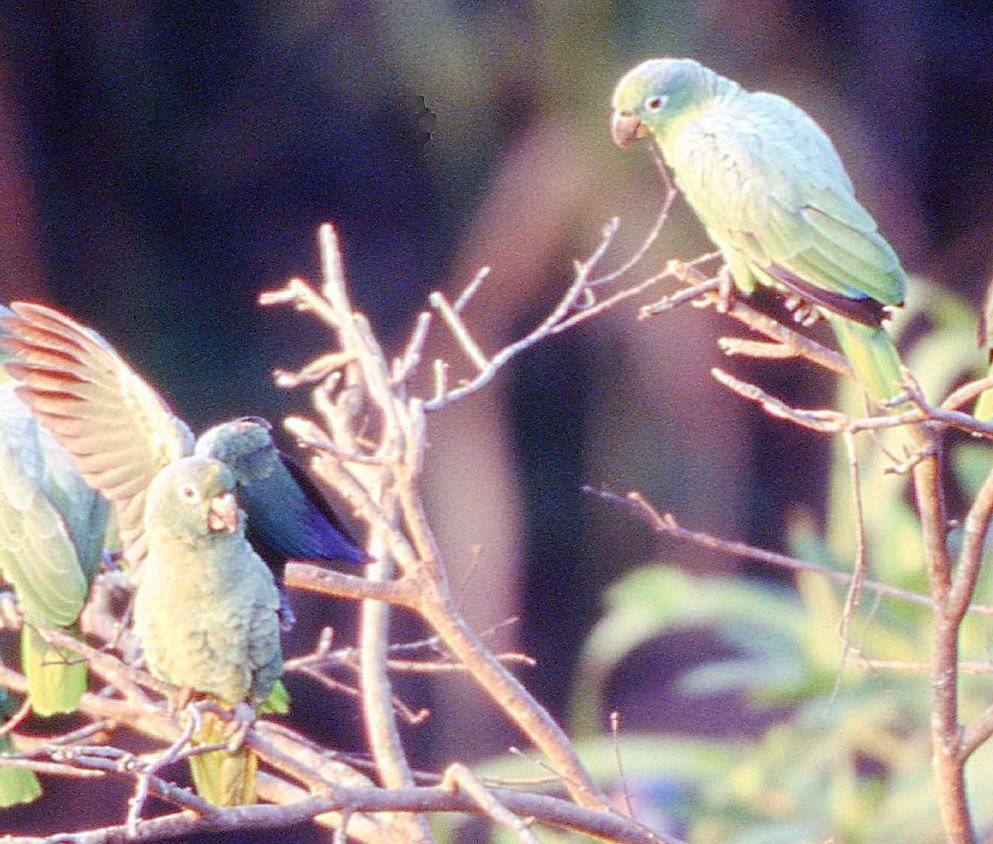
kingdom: Animalia
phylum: Chordata
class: Aves
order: Psittaciformes
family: Psittacidae
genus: Amazona
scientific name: Amazona ochrocephala
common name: Yellow-crowned amazon
